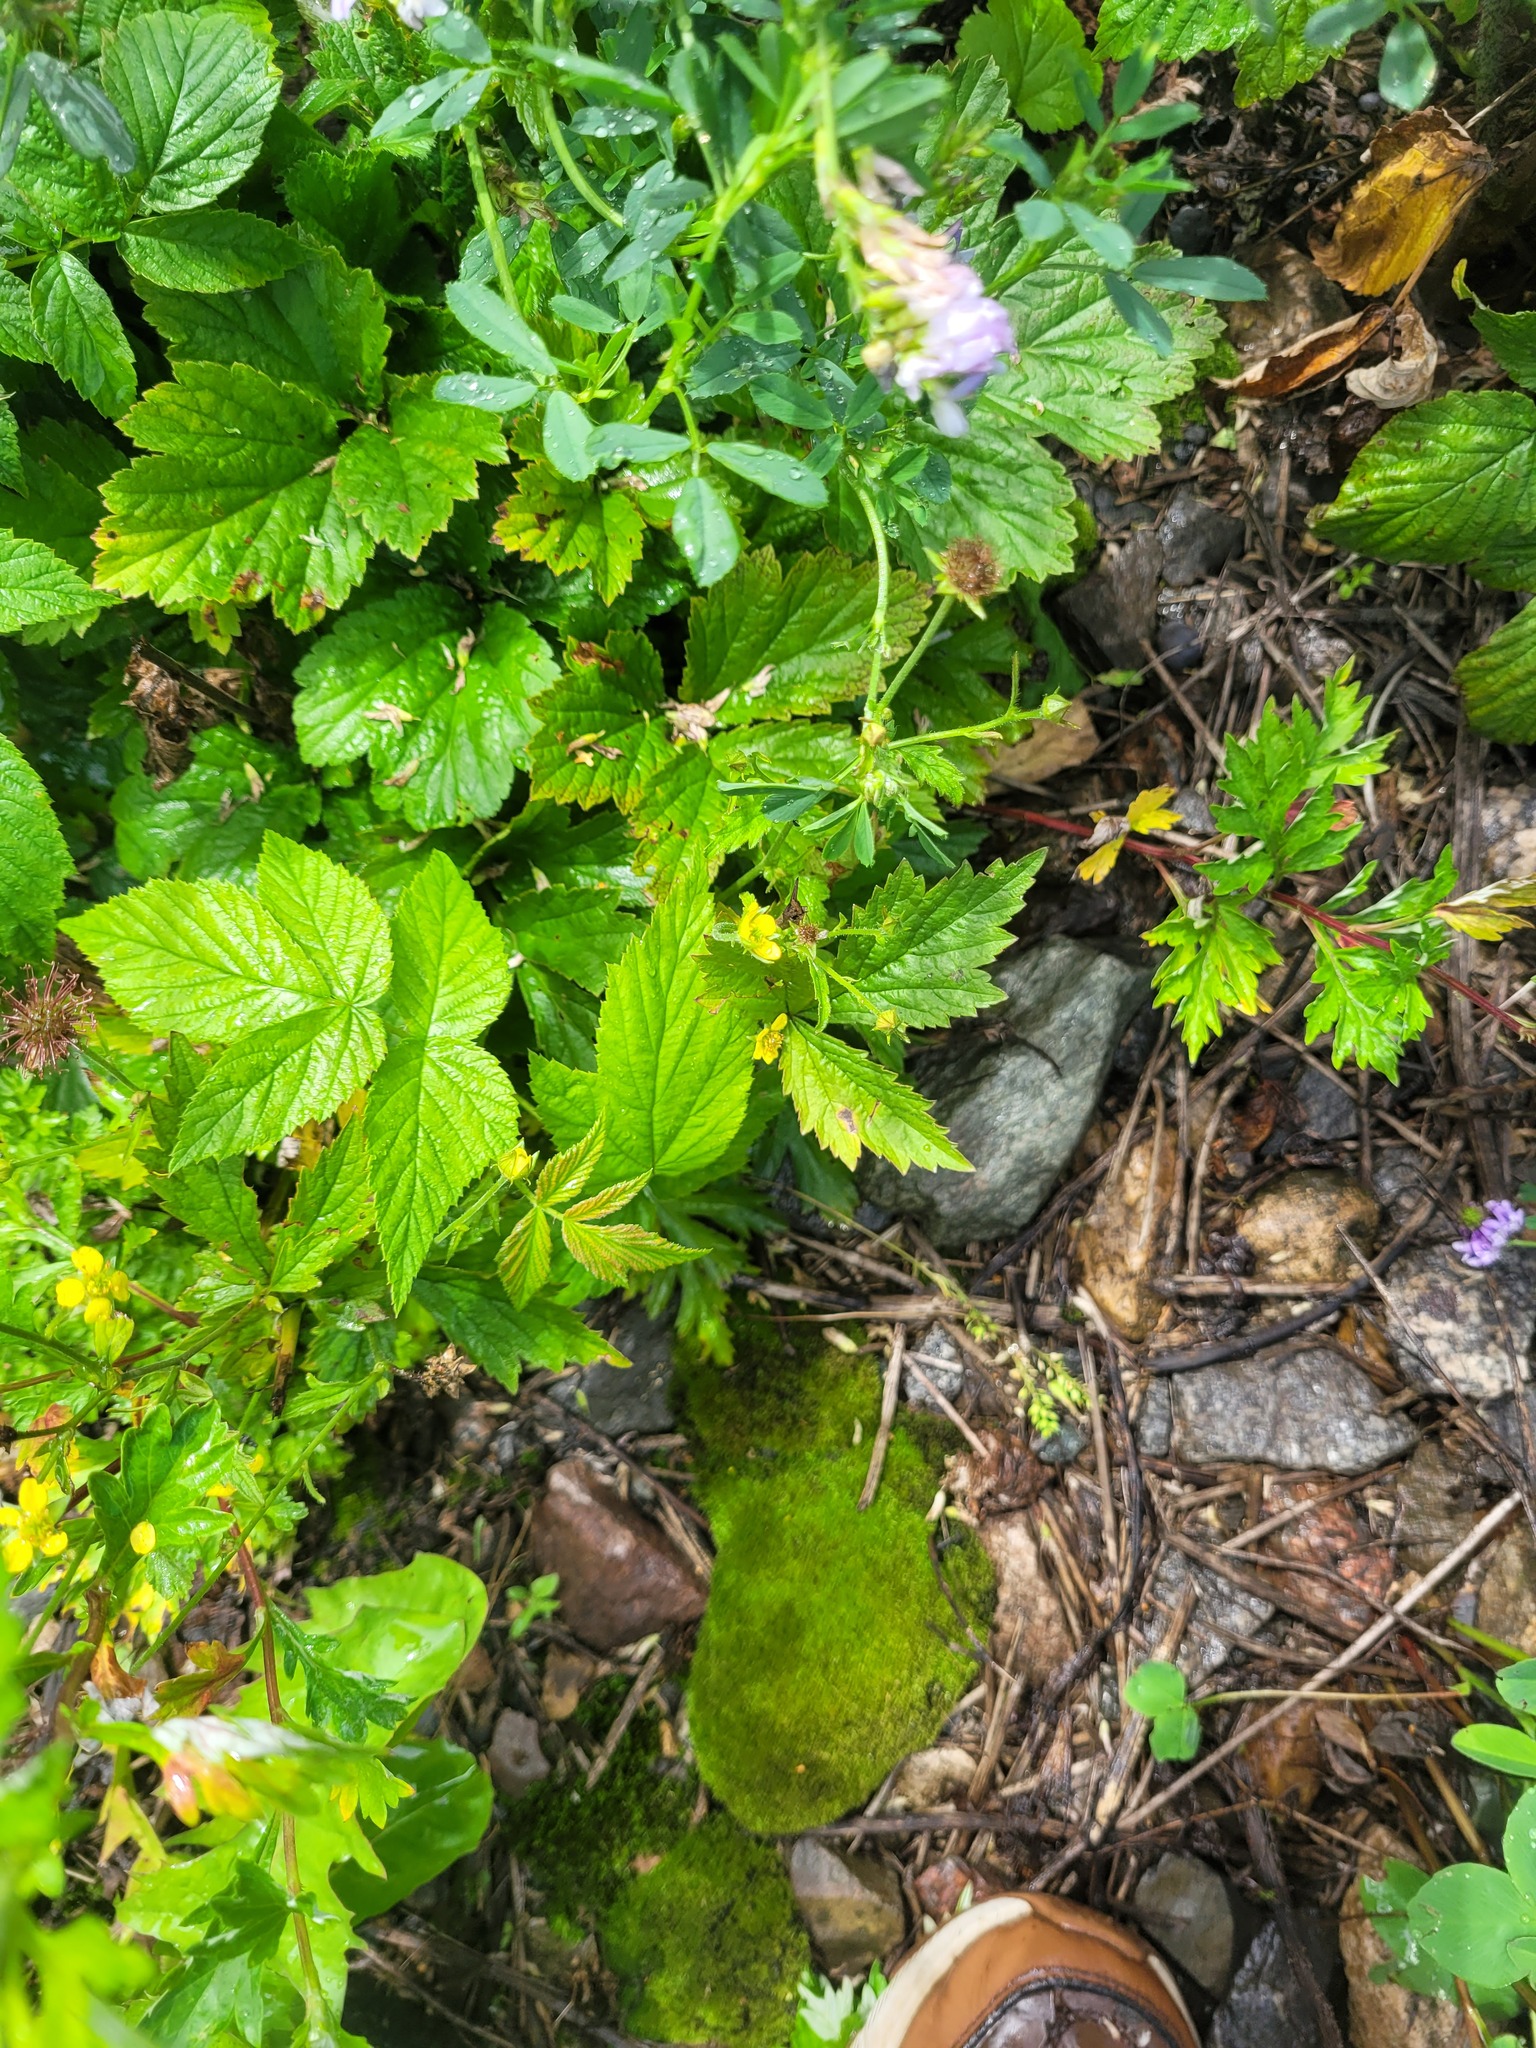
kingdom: Plantae
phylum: Tracheophyta
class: Magnoliopsida
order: Rosales
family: Rosaceae
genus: Geum
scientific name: Geum urbanum
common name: Wood avens
